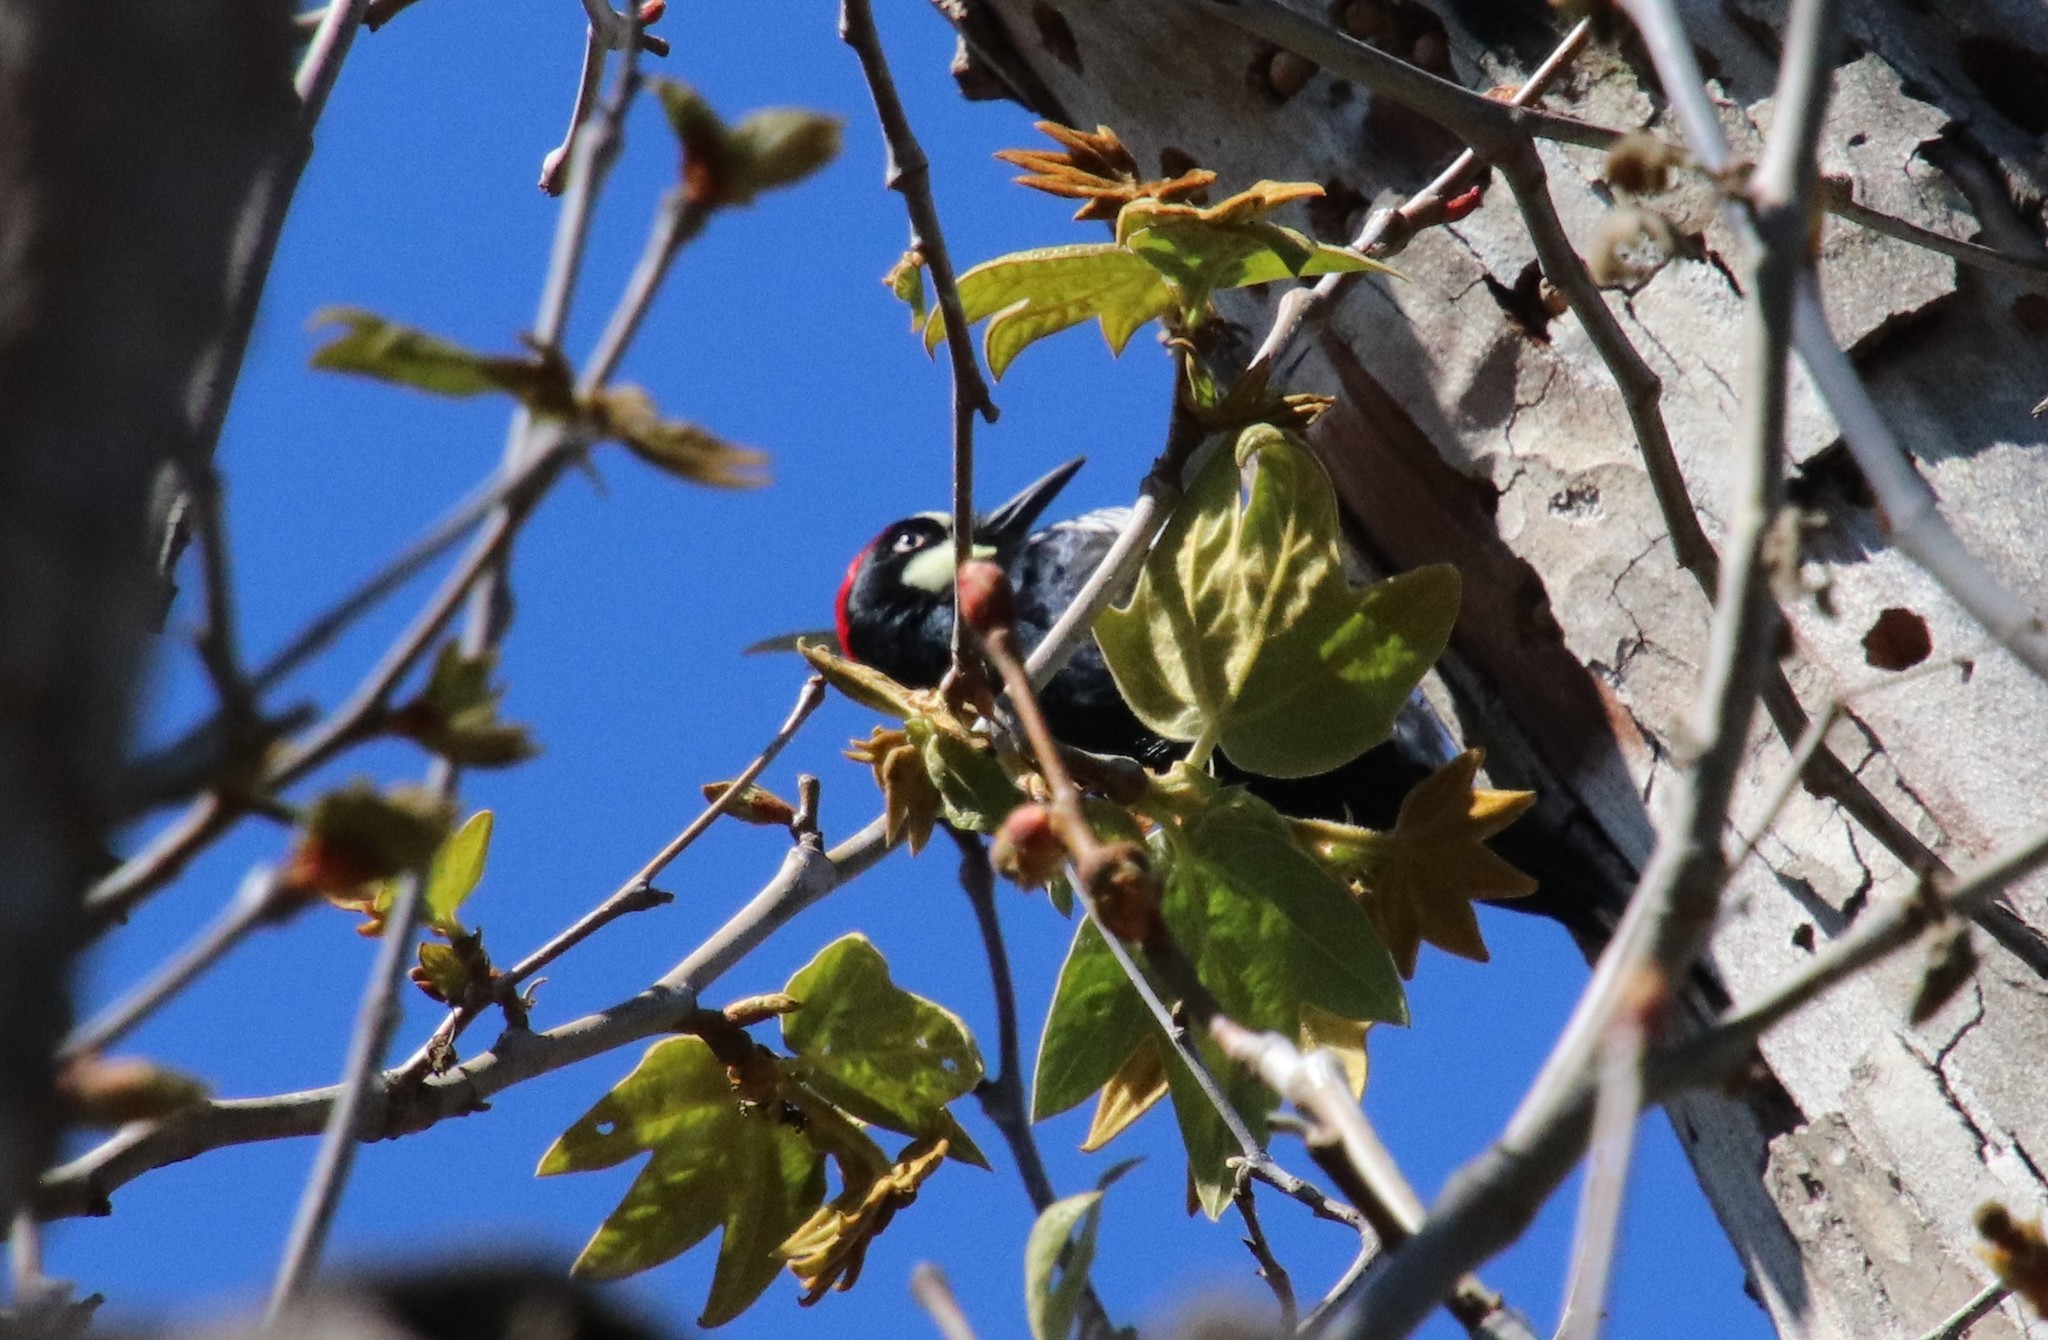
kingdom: Animalia
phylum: Chordata
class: Aves
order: Piciformes
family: Picidae
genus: Melanerpes
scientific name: Melanerpes formicivorus
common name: Acorn woodpecker
